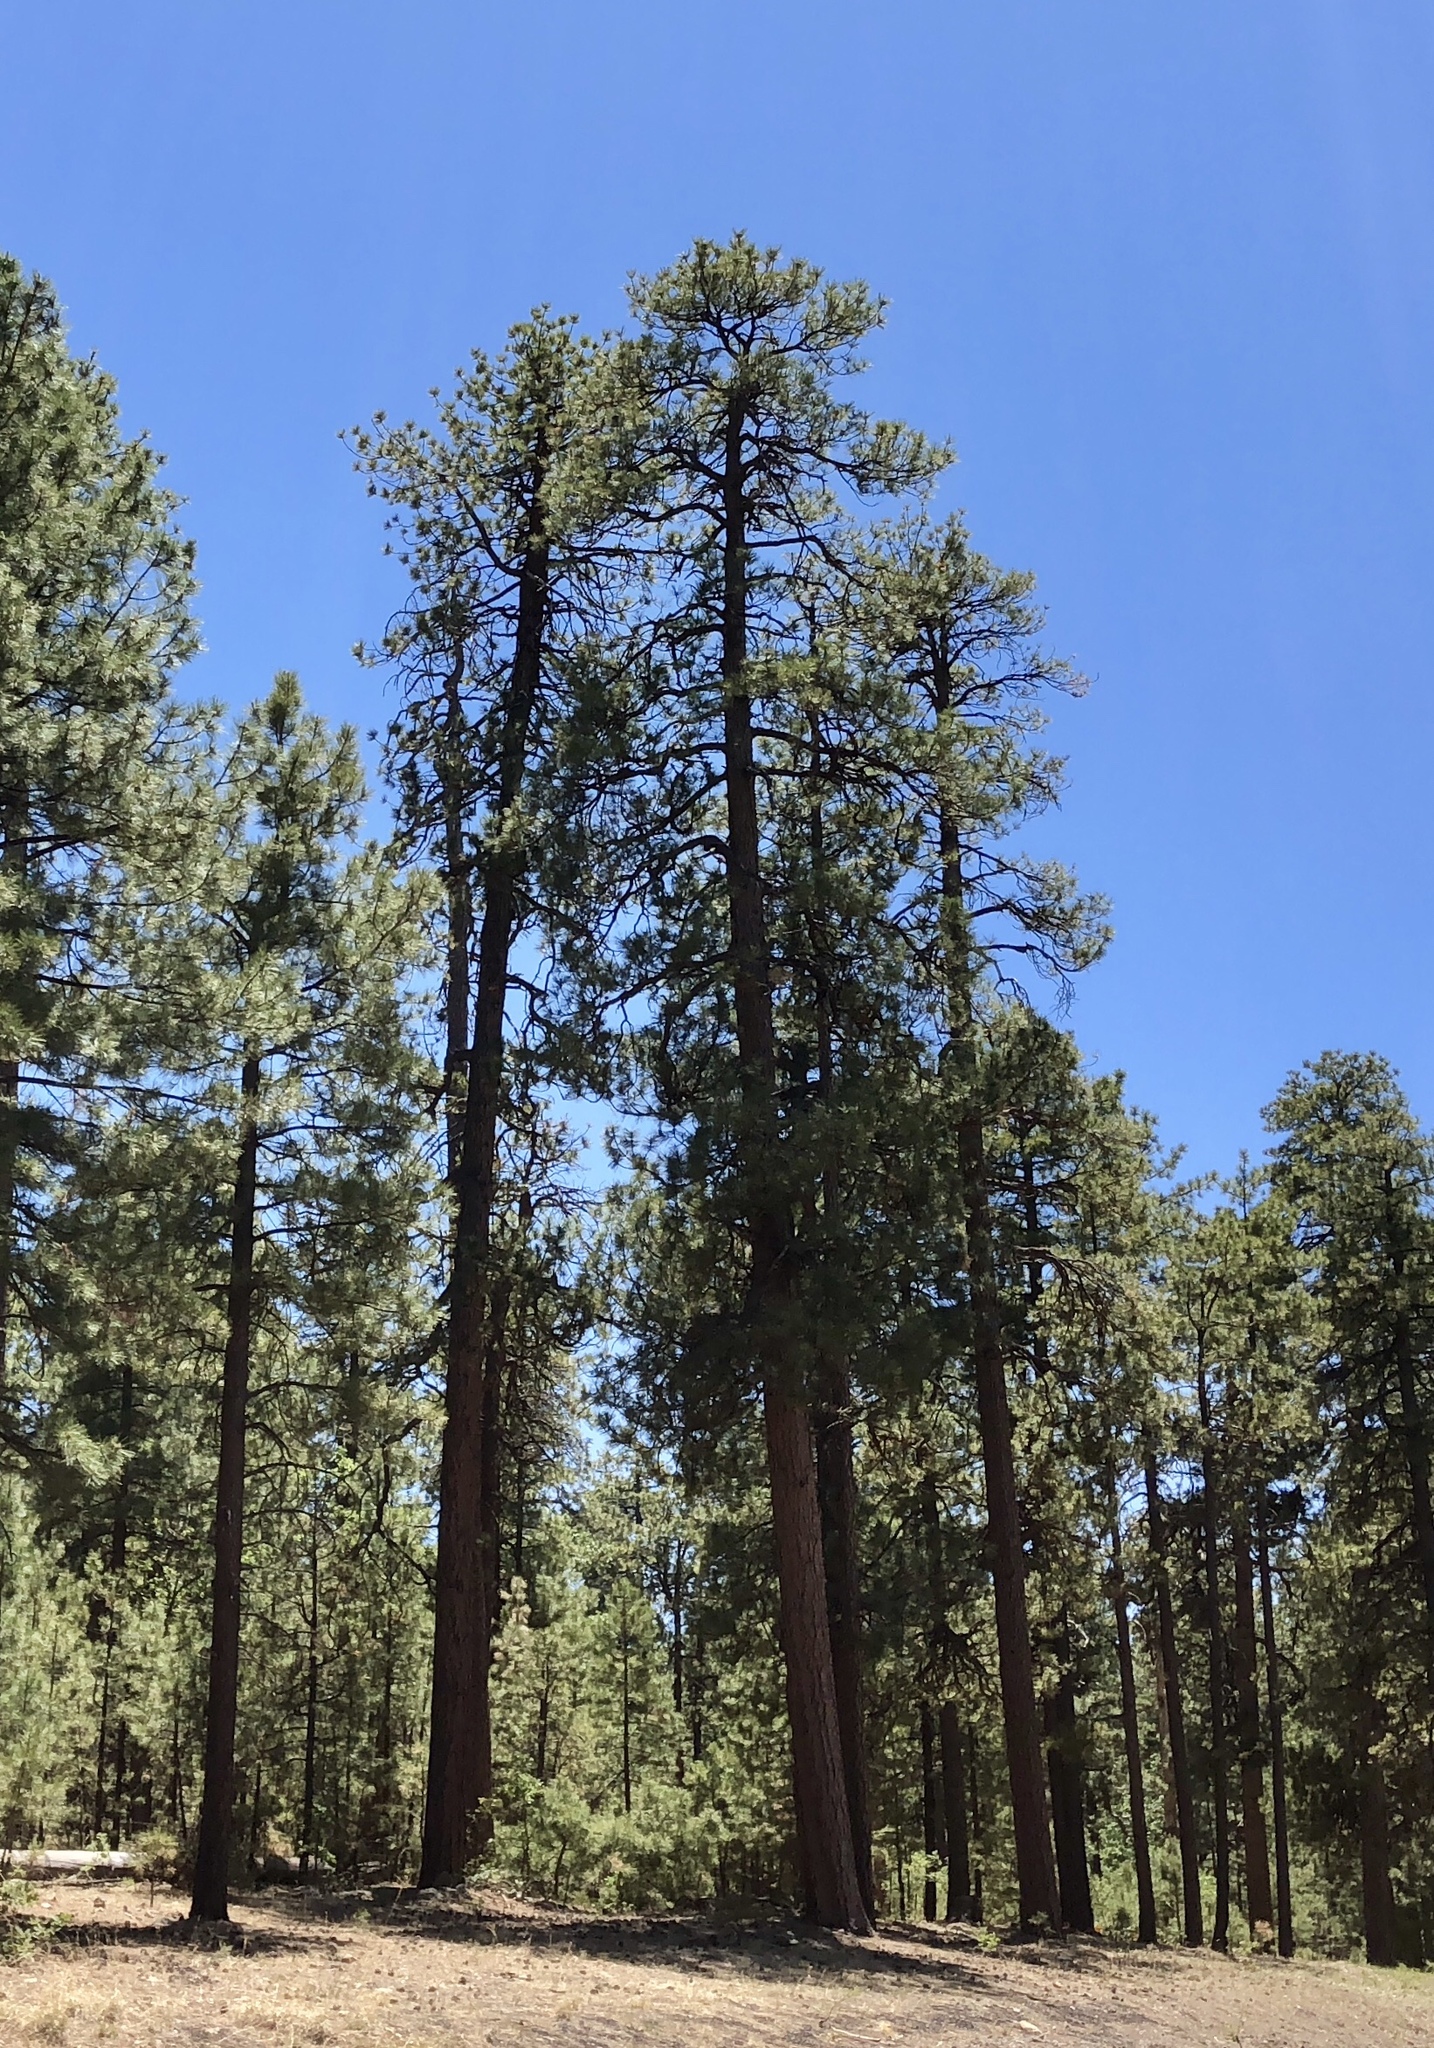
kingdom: Plantae
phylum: Tracheophyta
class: Pinopsida
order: Pinales
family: Pinaceae
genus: Pinus
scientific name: Pinus ponderosa
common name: Western yellow-pine
